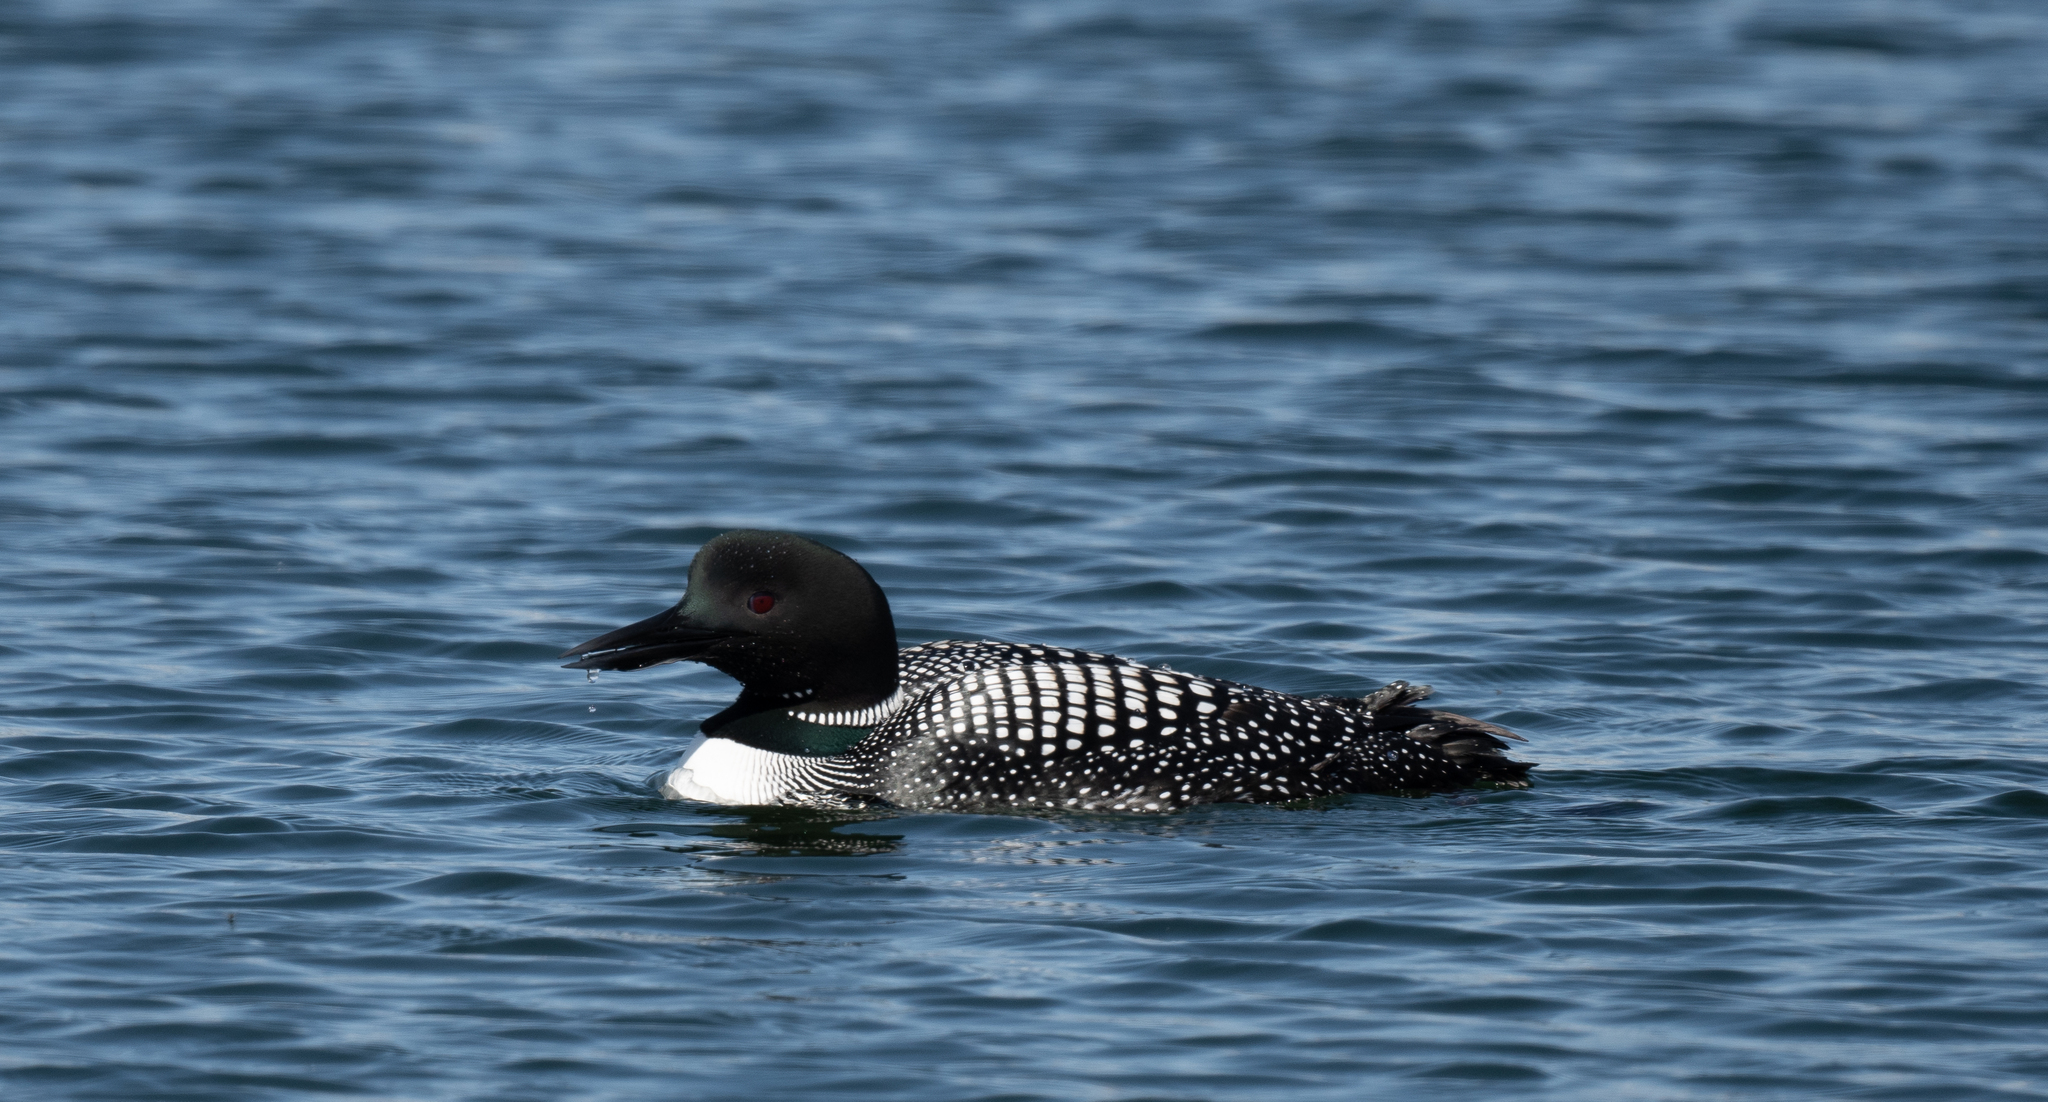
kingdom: Animalia
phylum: Chordata
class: Aves
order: Gaviiformes
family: Gaviidae
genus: Gavia
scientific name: Gavia immer
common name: Common loon
